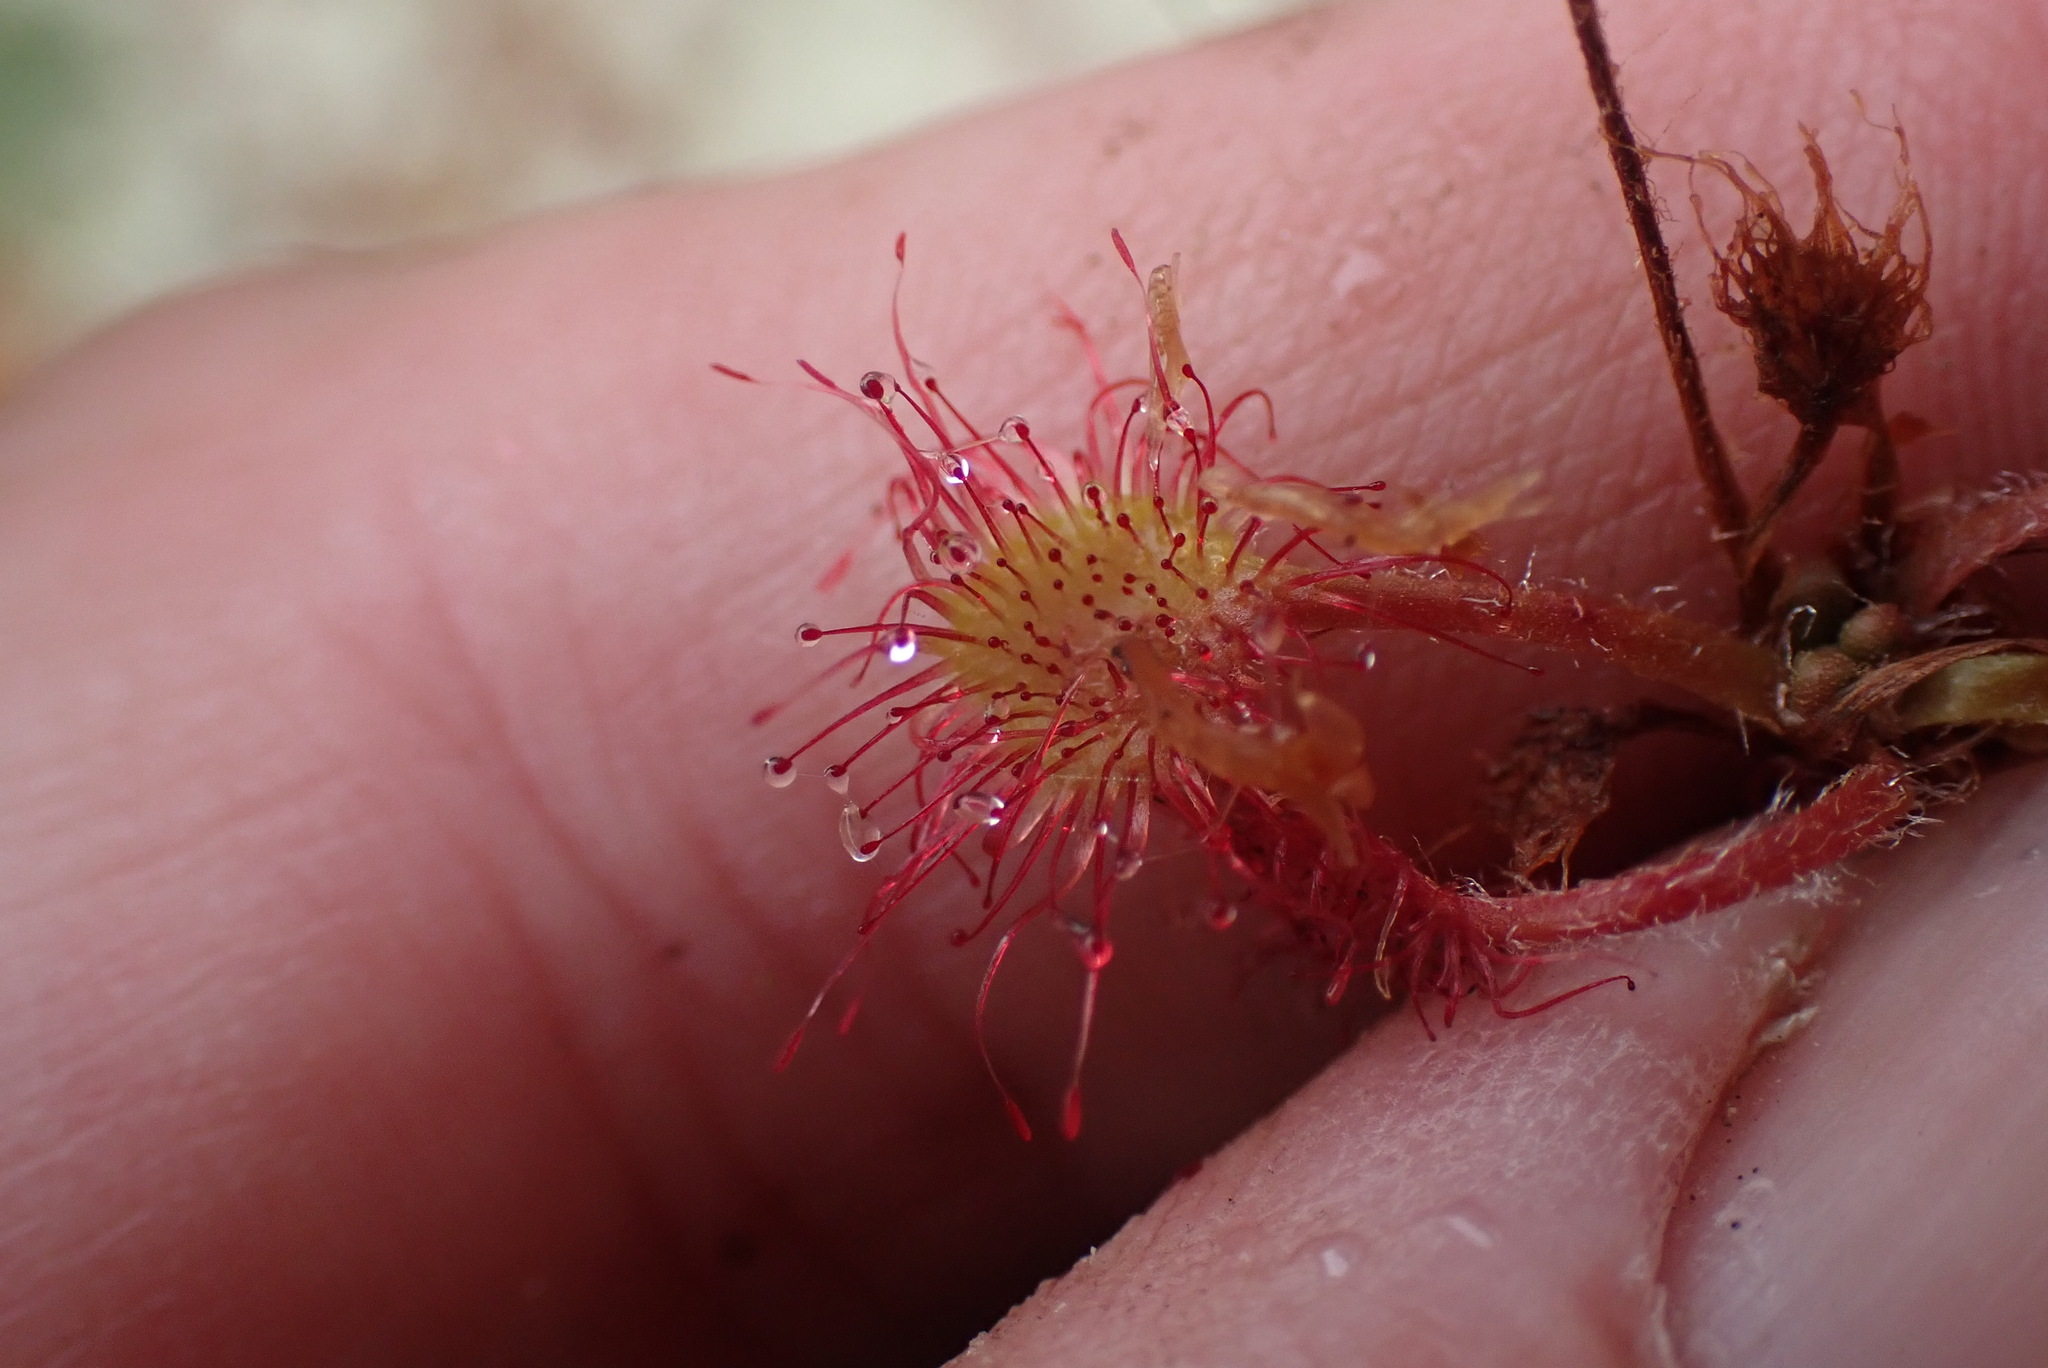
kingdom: Plantae
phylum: Tracheophyta
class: Magnoliopsida
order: Caryophyllales
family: Droseraceae
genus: Drosera
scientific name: Drosera rotundifolia
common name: Round-leaved sundew
